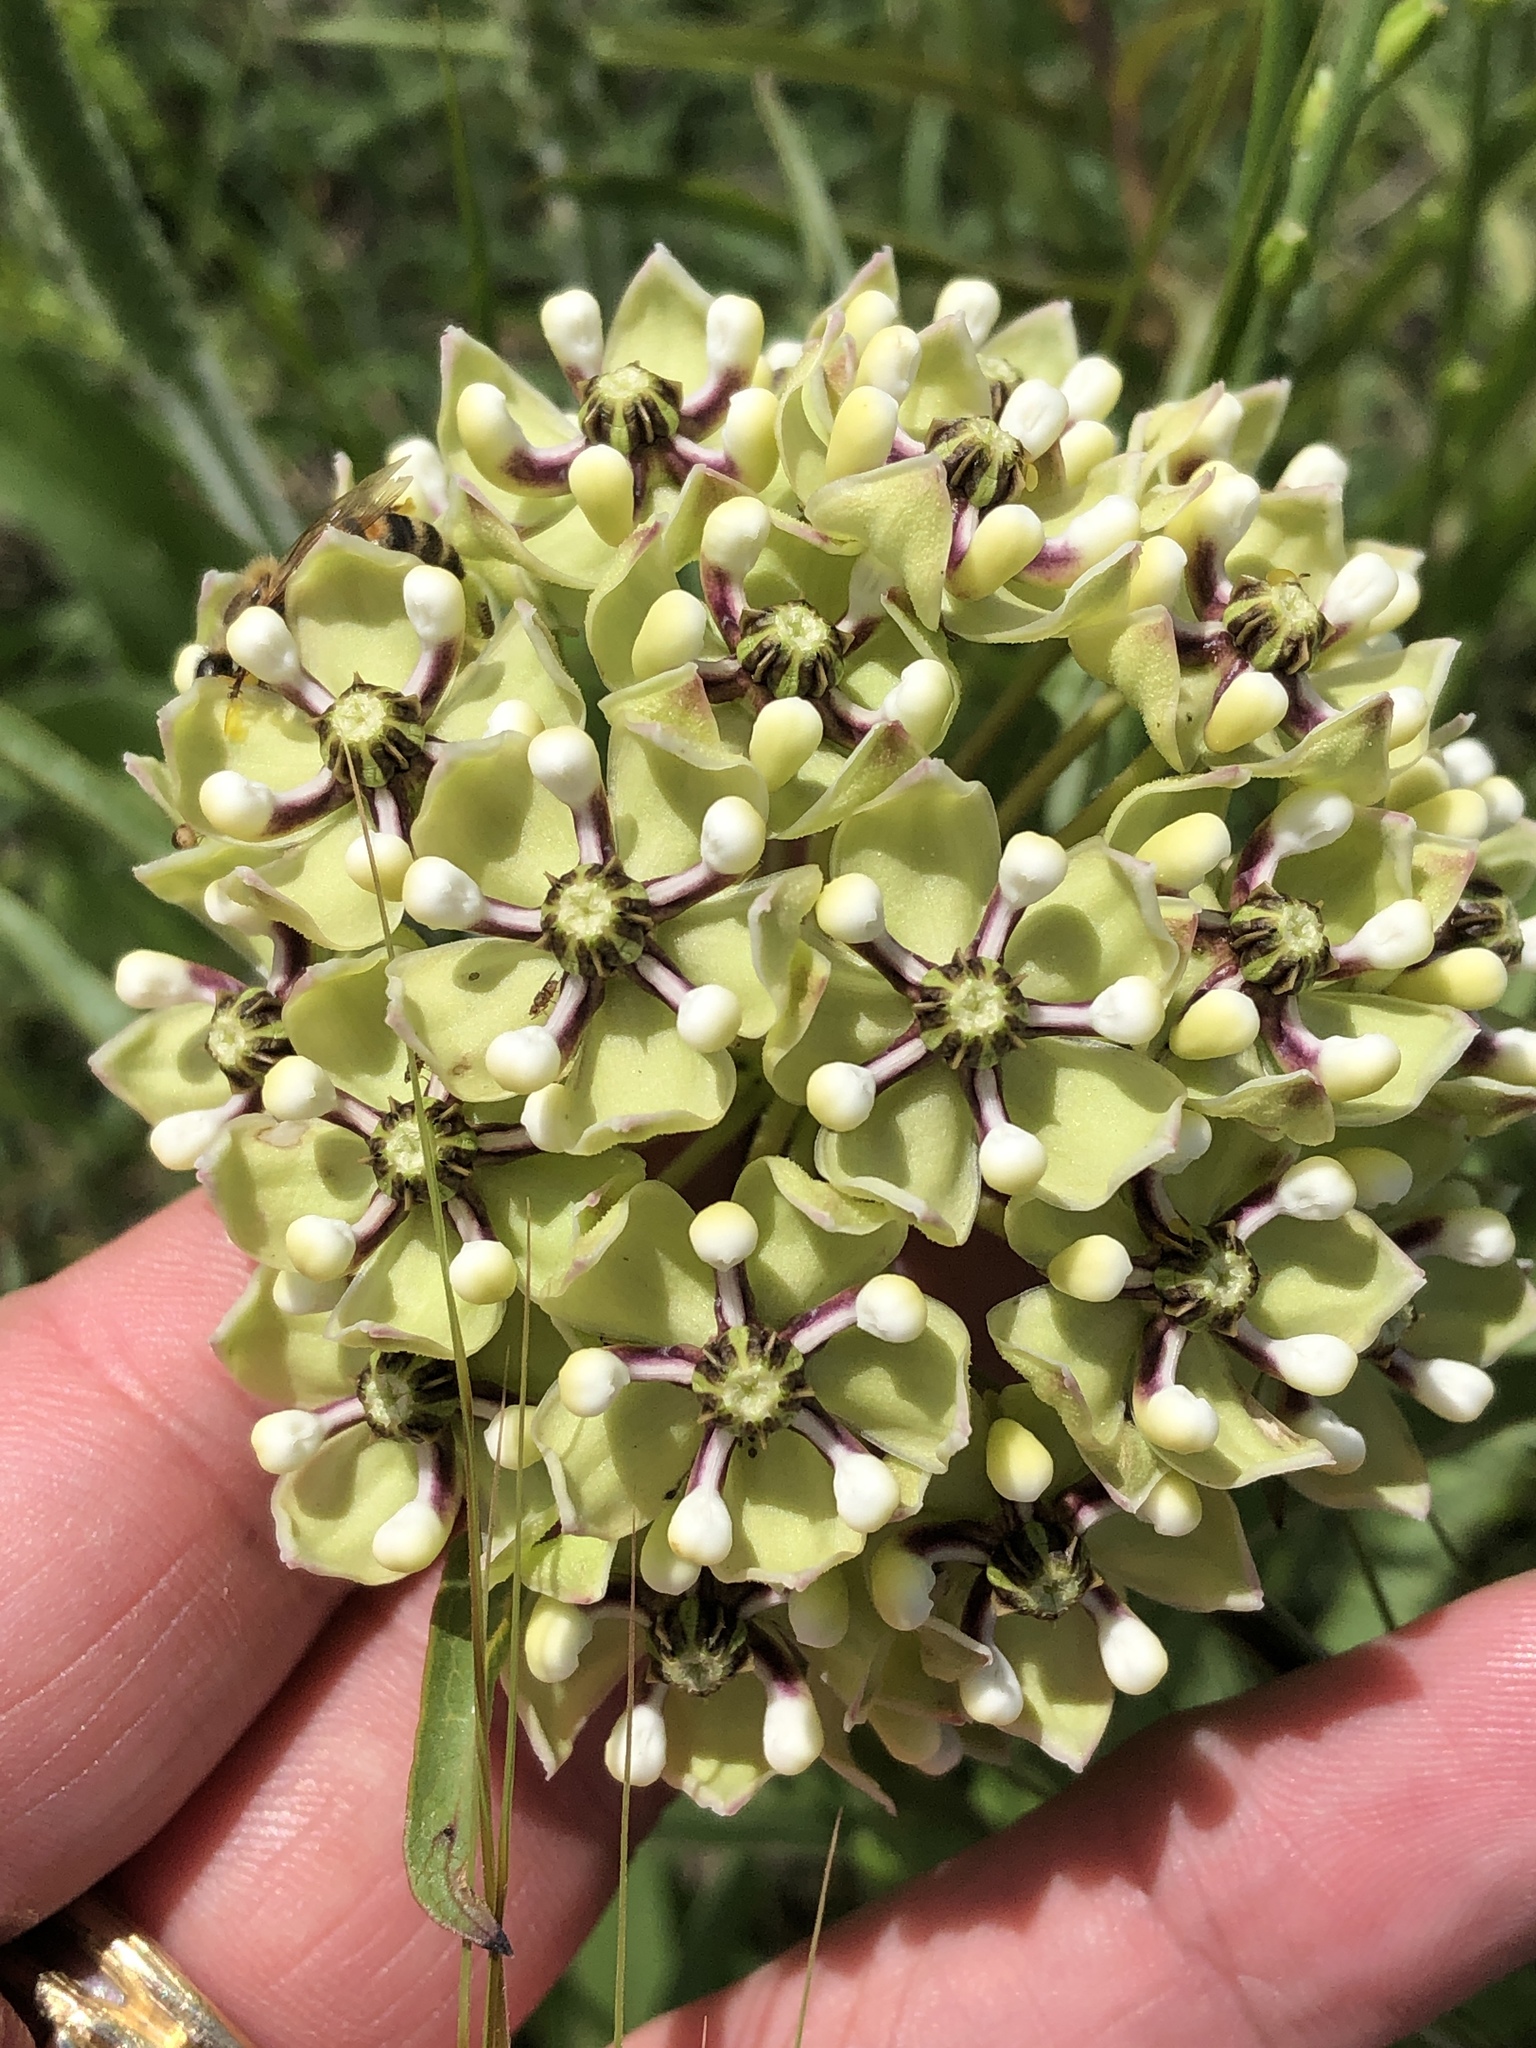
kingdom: Plantae
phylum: Tracheophyta
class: Magnoliopsida
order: Gentianales
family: Apocynaceae
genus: Asclepias
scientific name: Asclepias asperula
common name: Antelope horns
